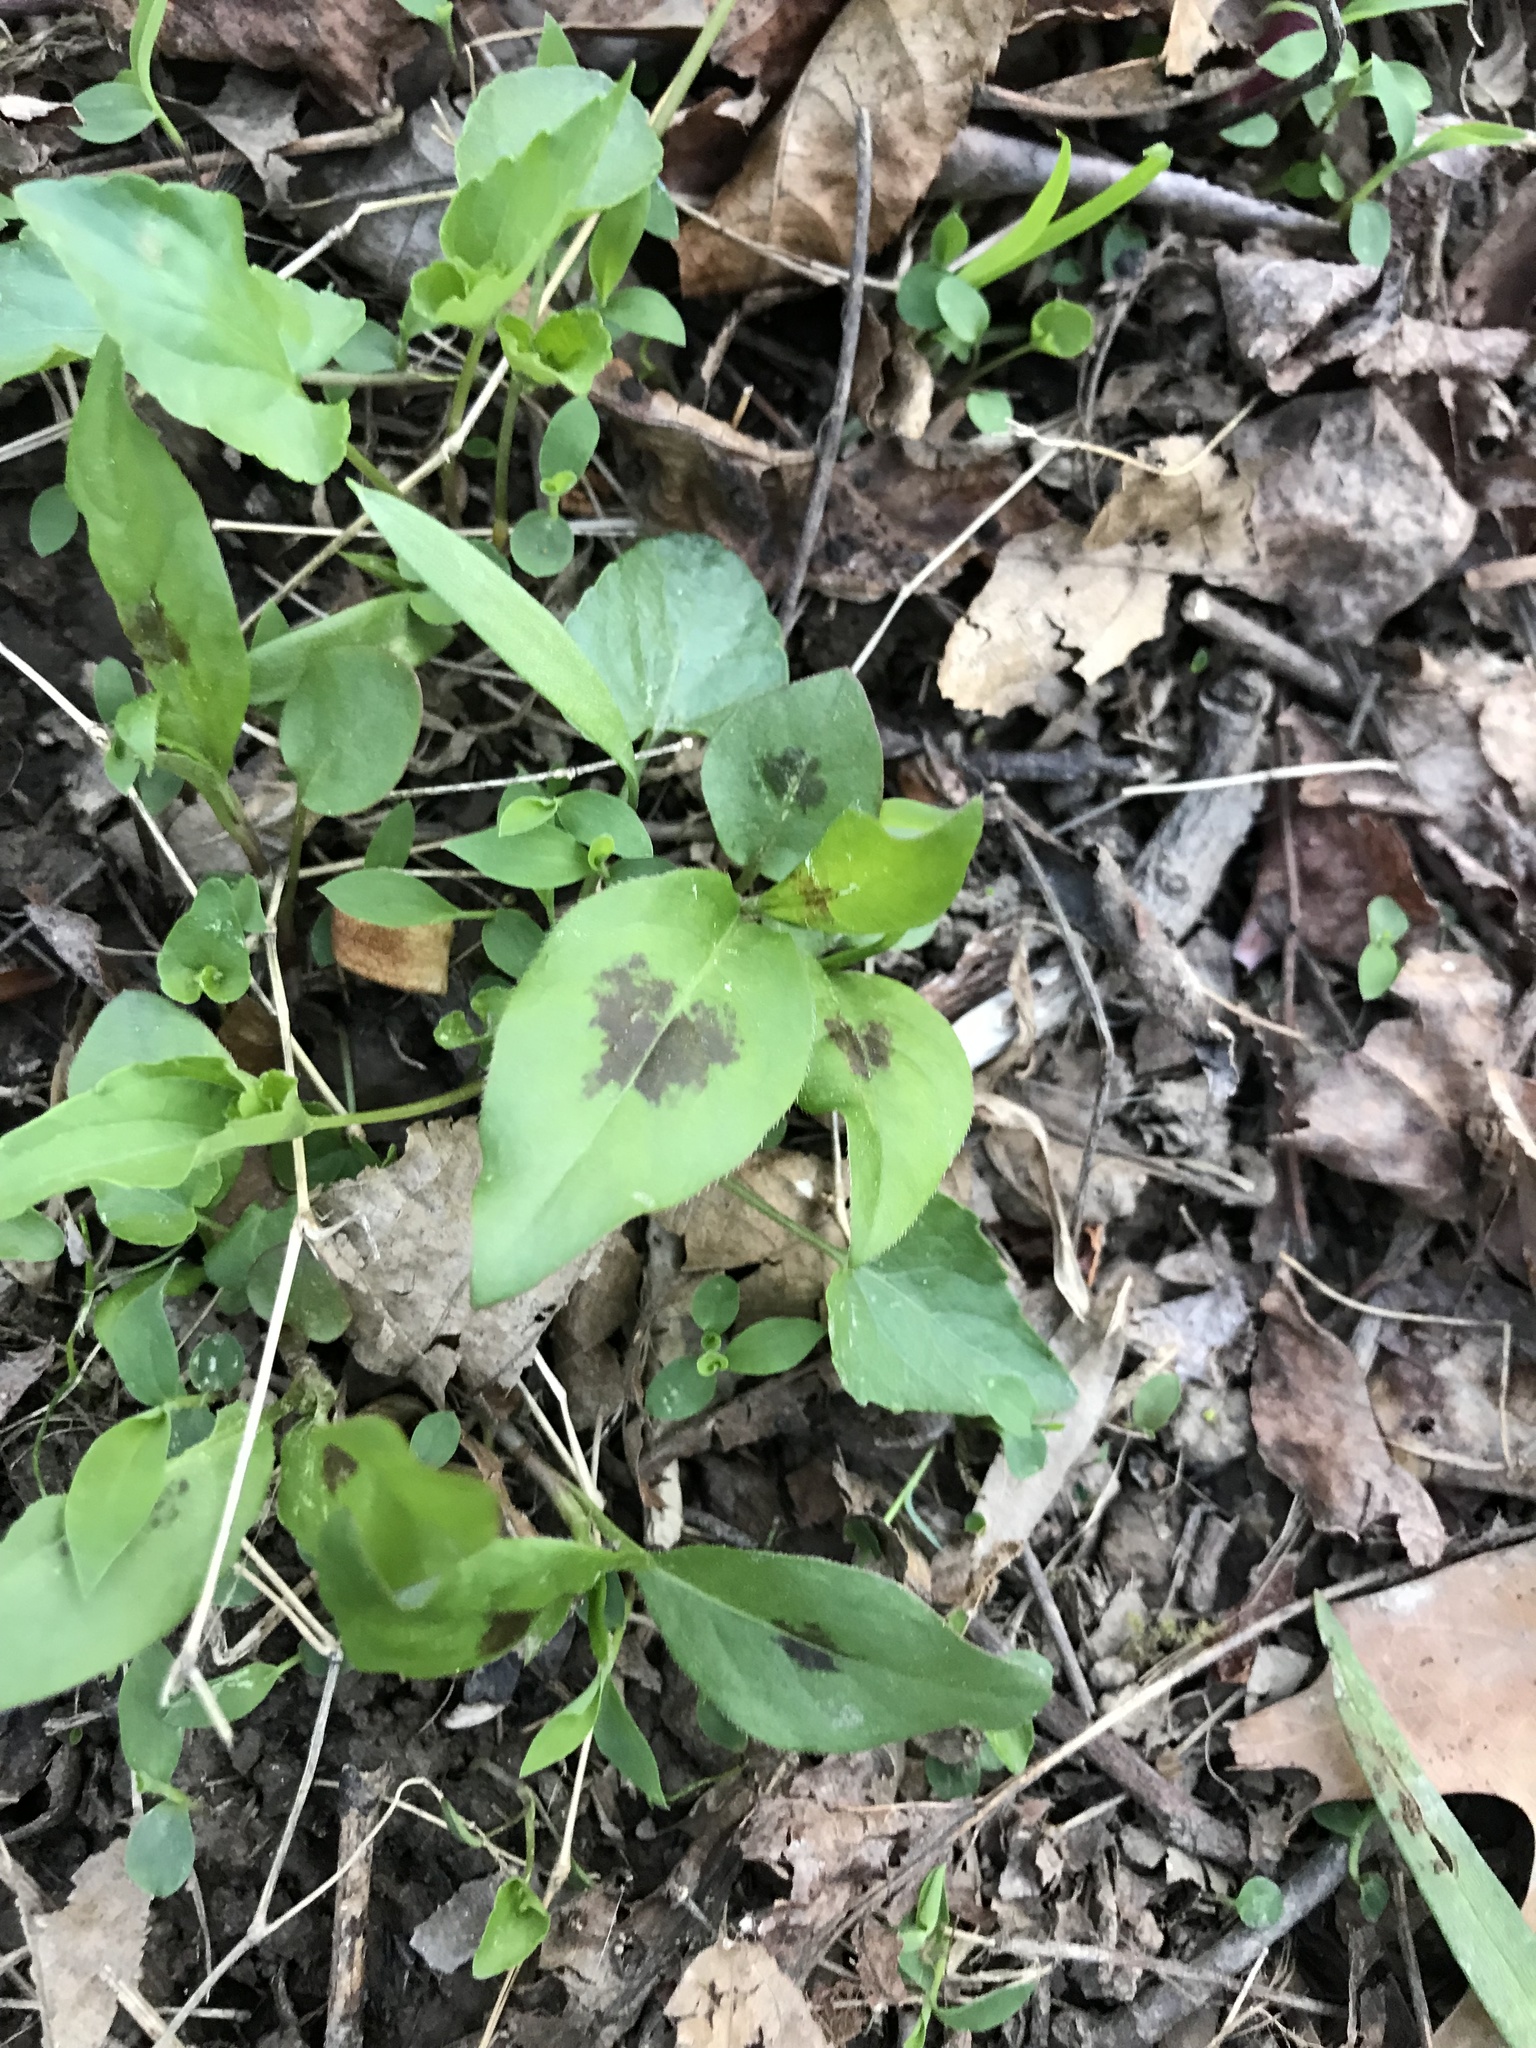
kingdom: Plantae
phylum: Tracheophyta
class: Magnoliopsida
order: Caryophyllales
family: Polygonaceae
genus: Persicaria
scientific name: Persicaria virginiana
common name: Jumpseed
